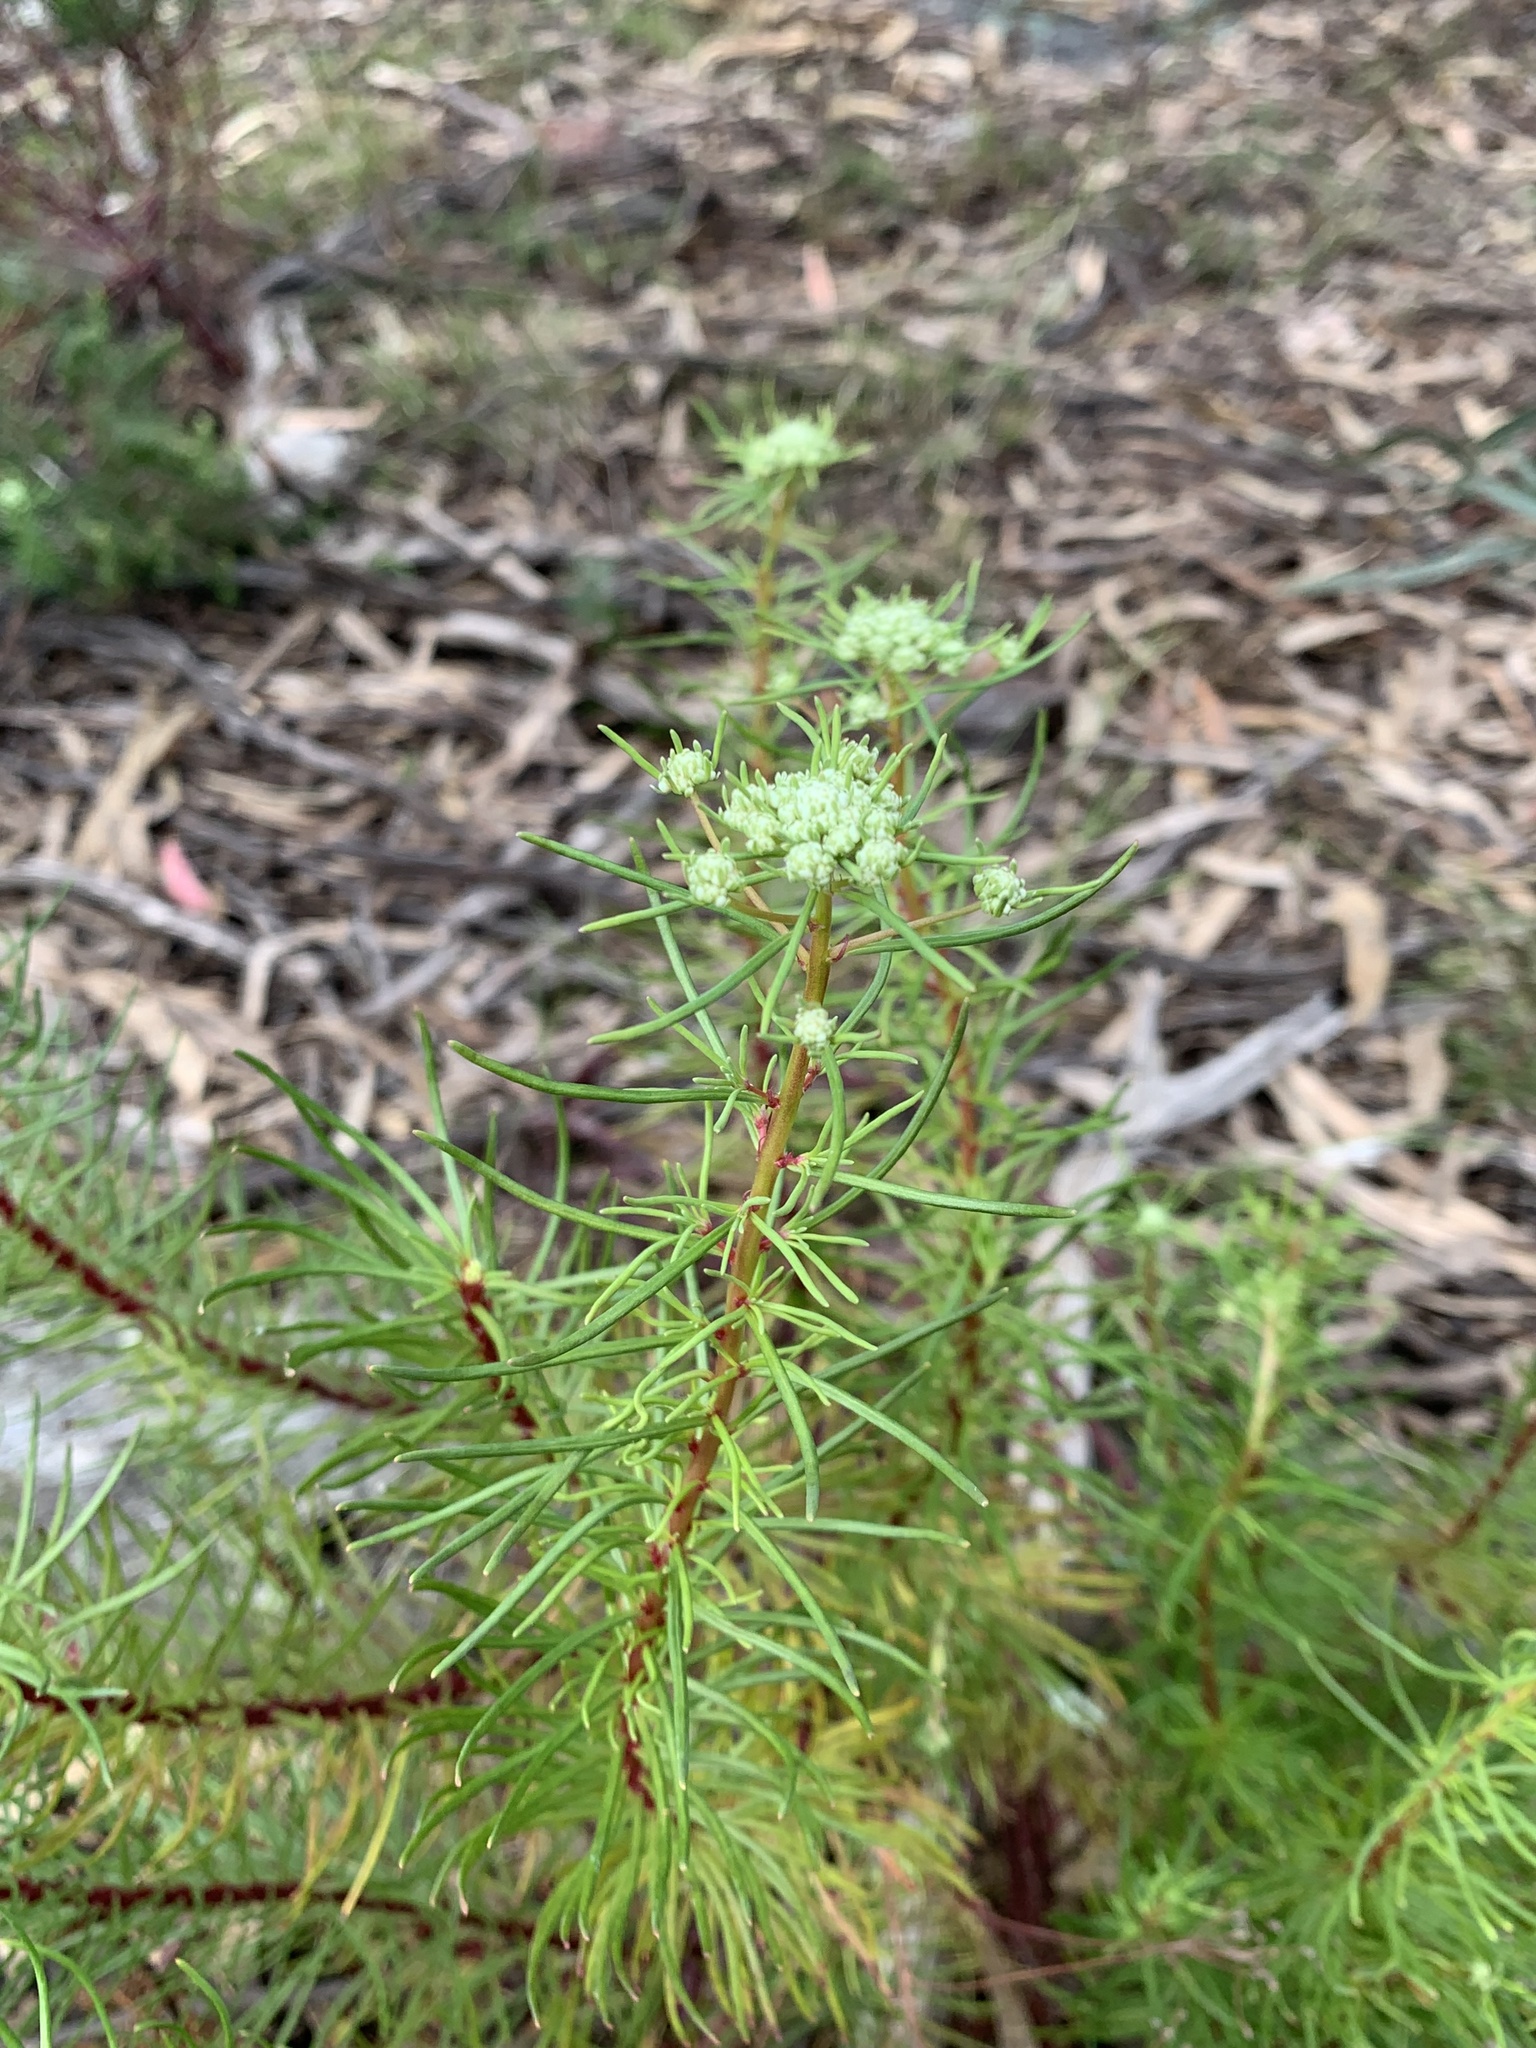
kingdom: Plantae
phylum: Tracheophyta
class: Magnoliopsida
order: Malpighiales
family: Phyllanthaceae
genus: Poranthera
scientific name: Poranthera corymbosa
